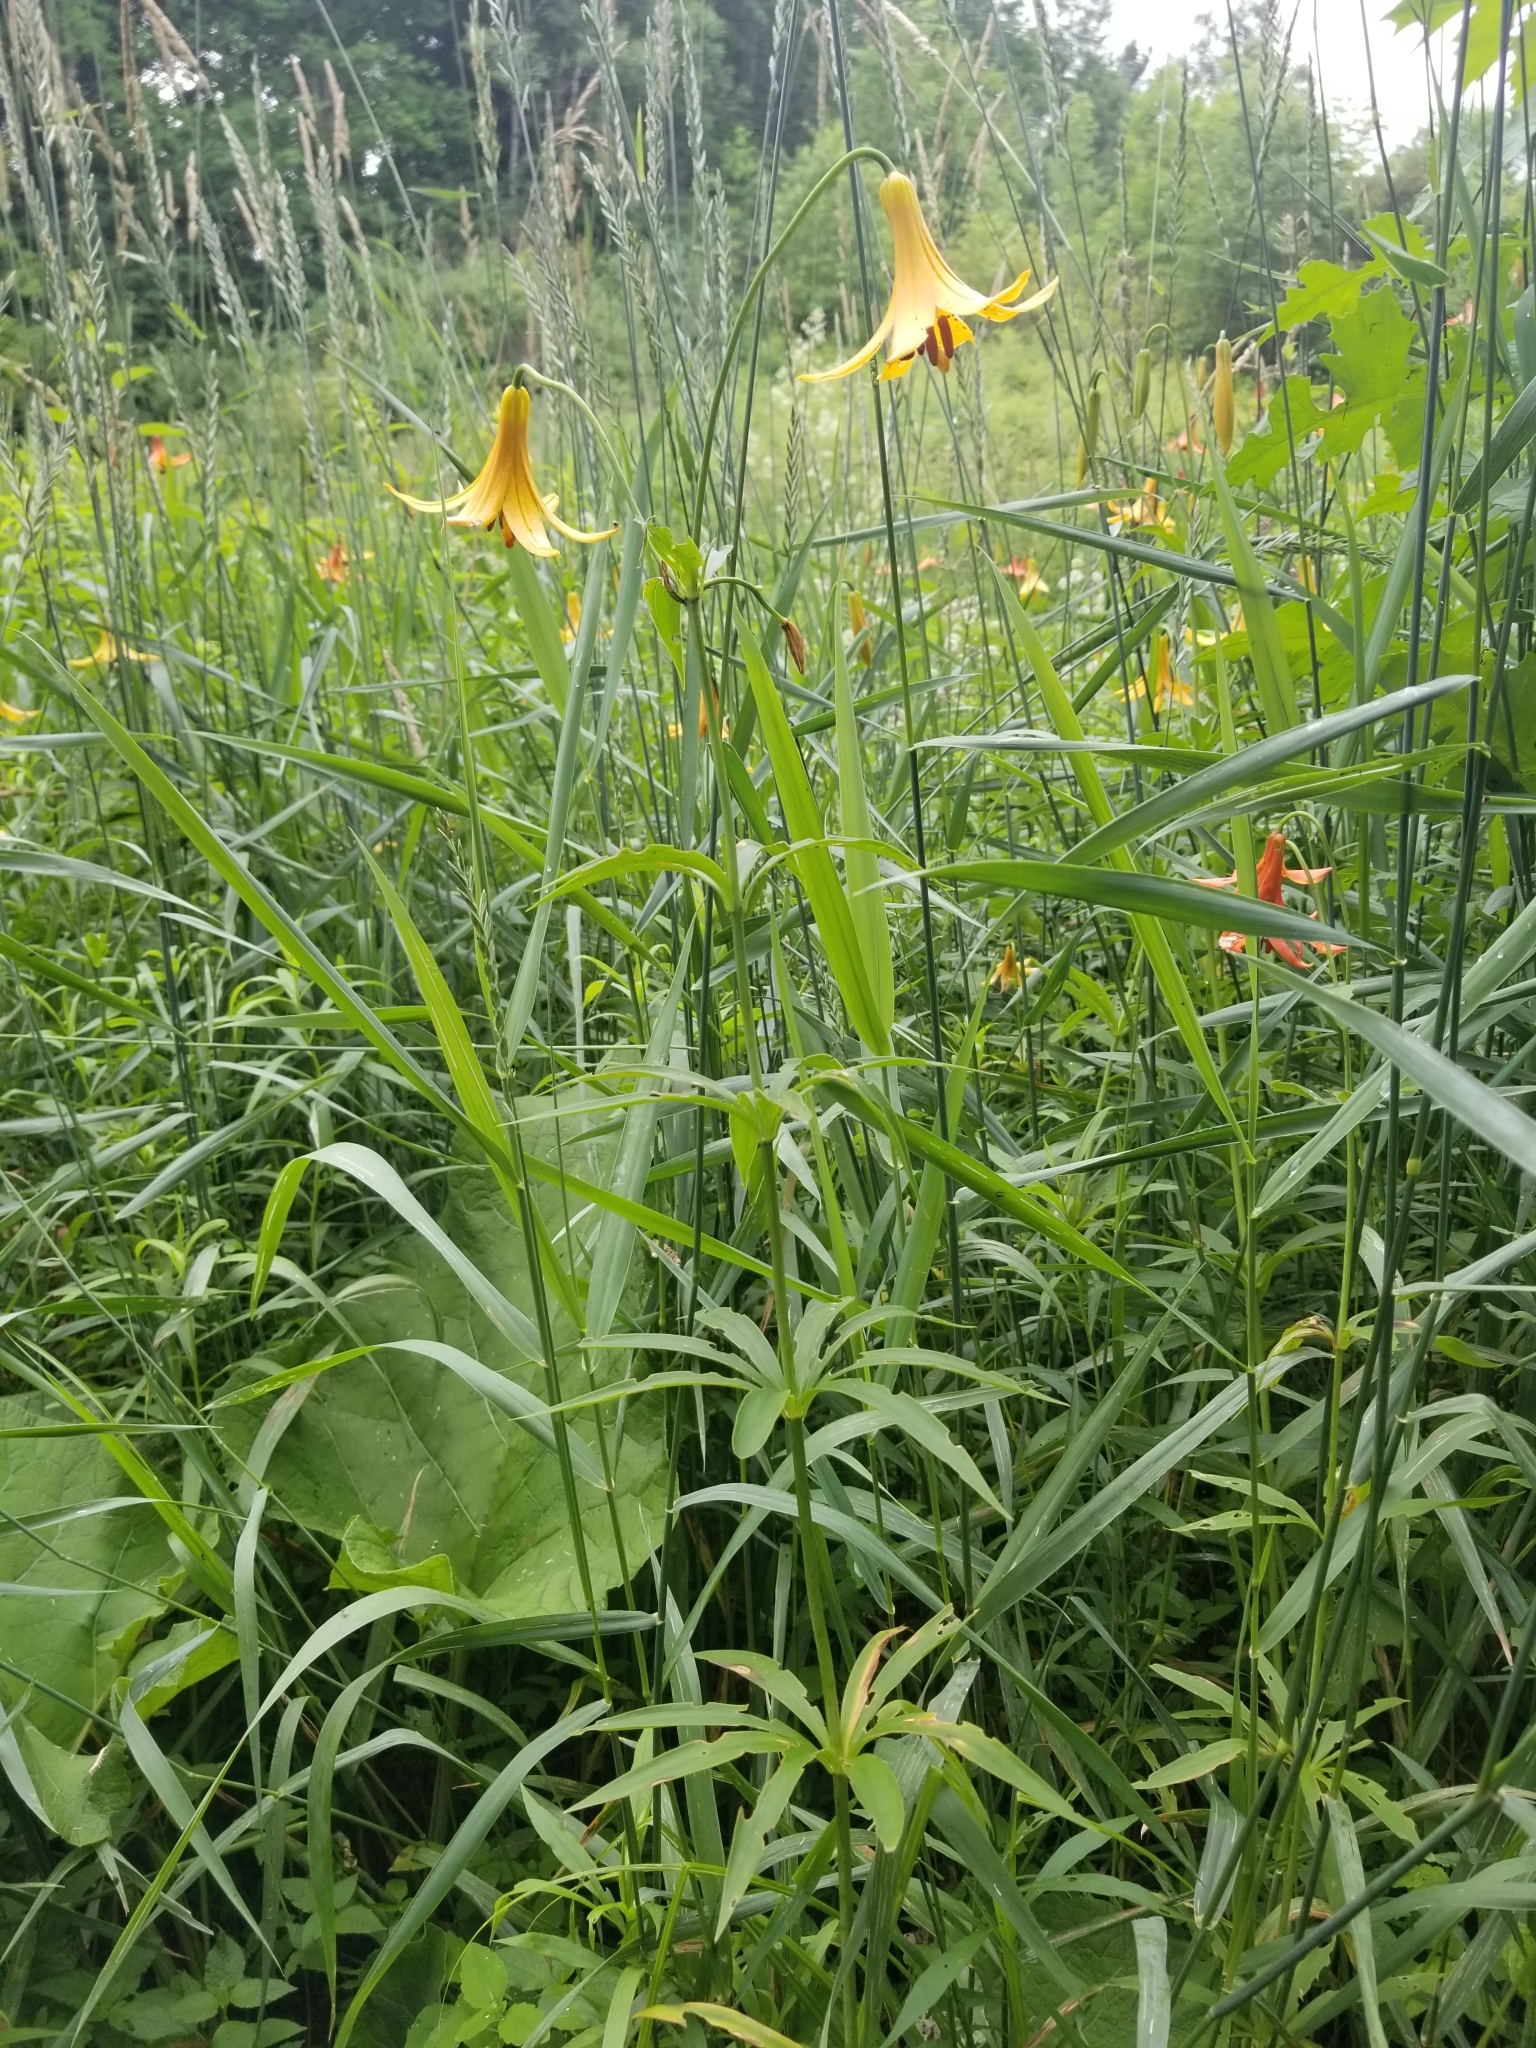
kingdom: Plantae
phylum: Tracheophyta
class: Liliopsida
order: Liliales
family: Liliaceae
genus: Lilium
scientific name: Lilium canadense
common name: Canada lily
